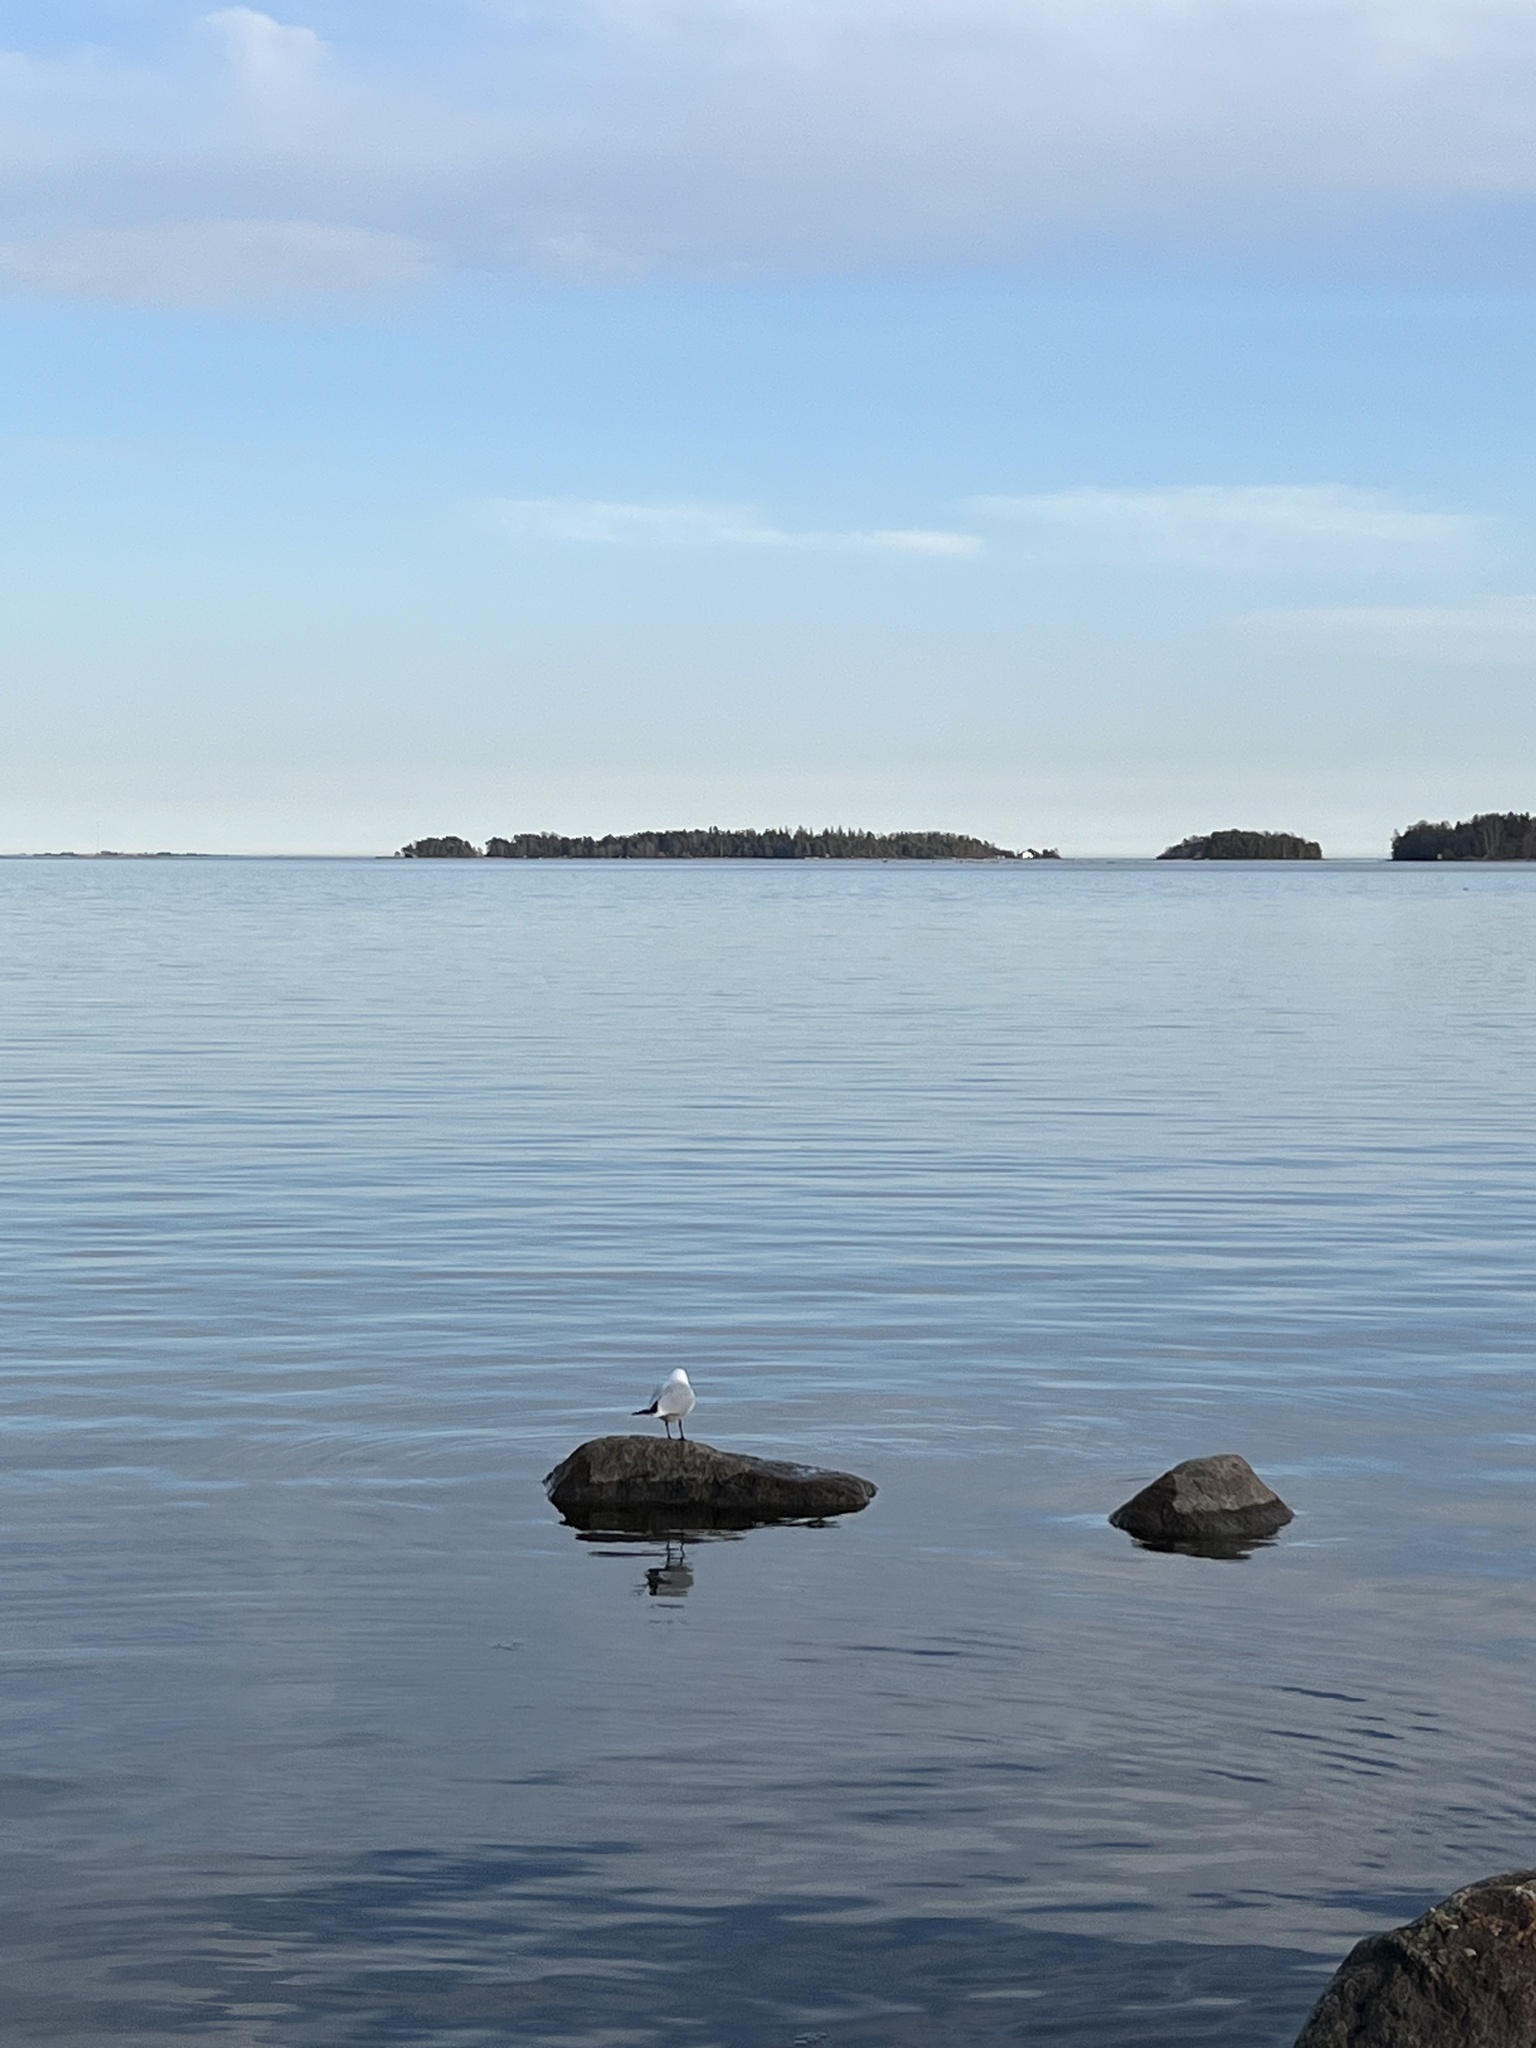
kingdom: Animalia
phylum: Chordata
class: Aves
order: Charadriiformes
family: Laridae
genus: Chroicocephalus
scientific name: Chroicocephalus ridibundus
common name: Black-headed gull
